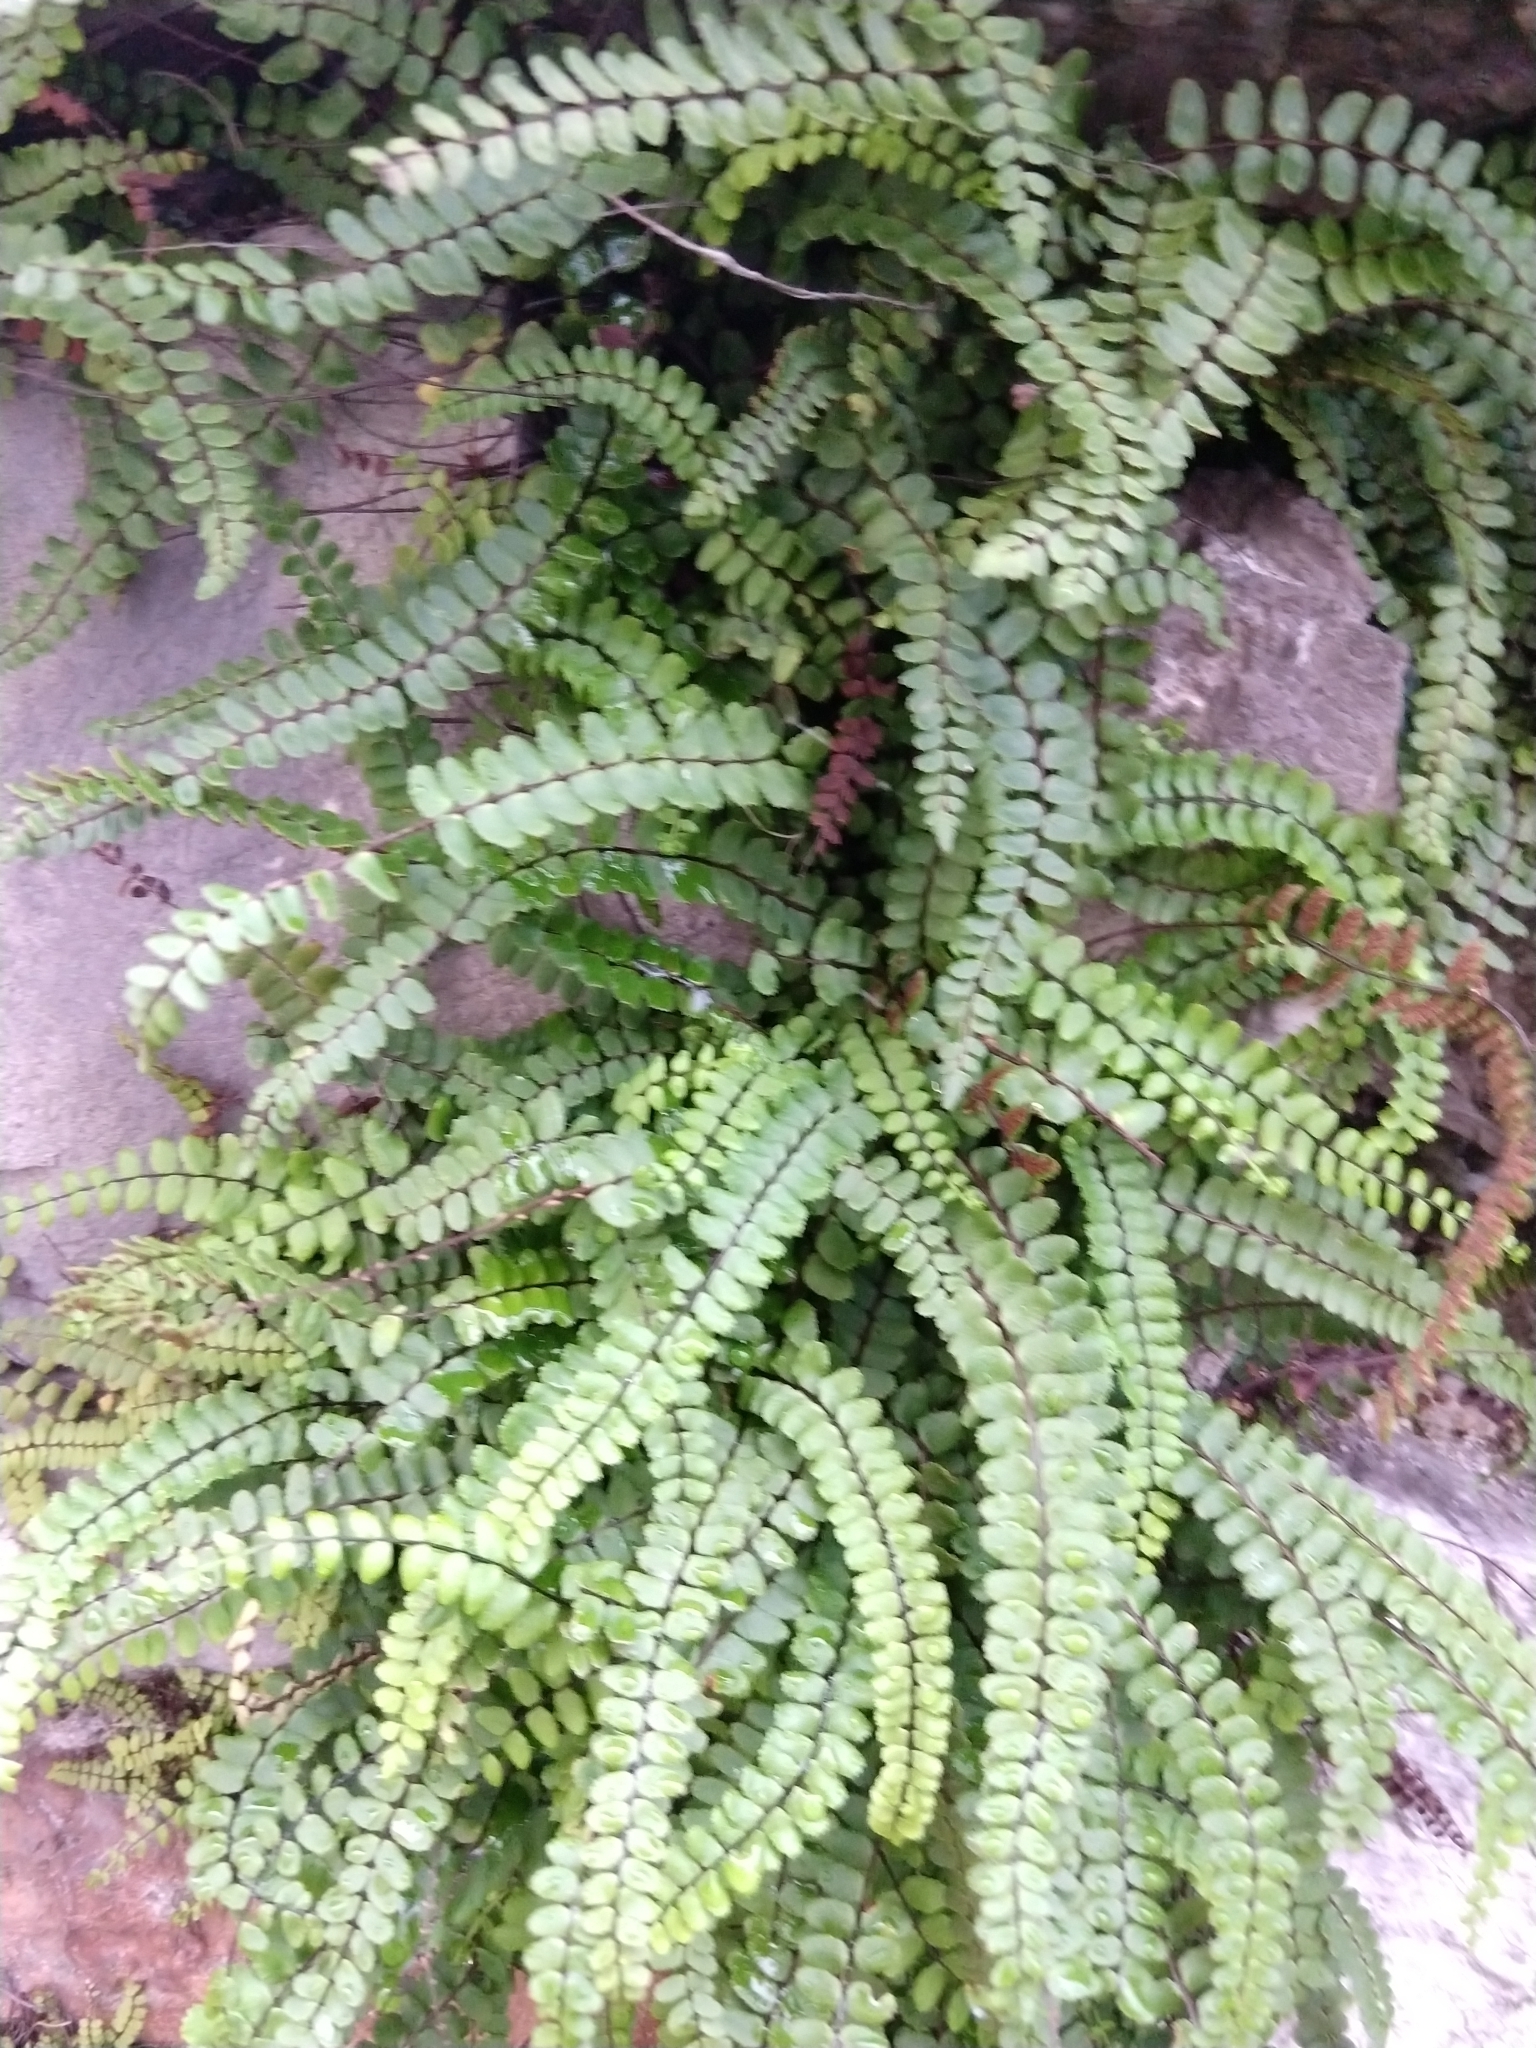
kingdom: Plantae
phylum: Tracheophyta
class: Polypodiopsida
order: Polypodiales
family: Aspleniaceae
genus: Asplenium
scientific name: Asplenium trichomanes
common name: Maidenhair spleenwort
